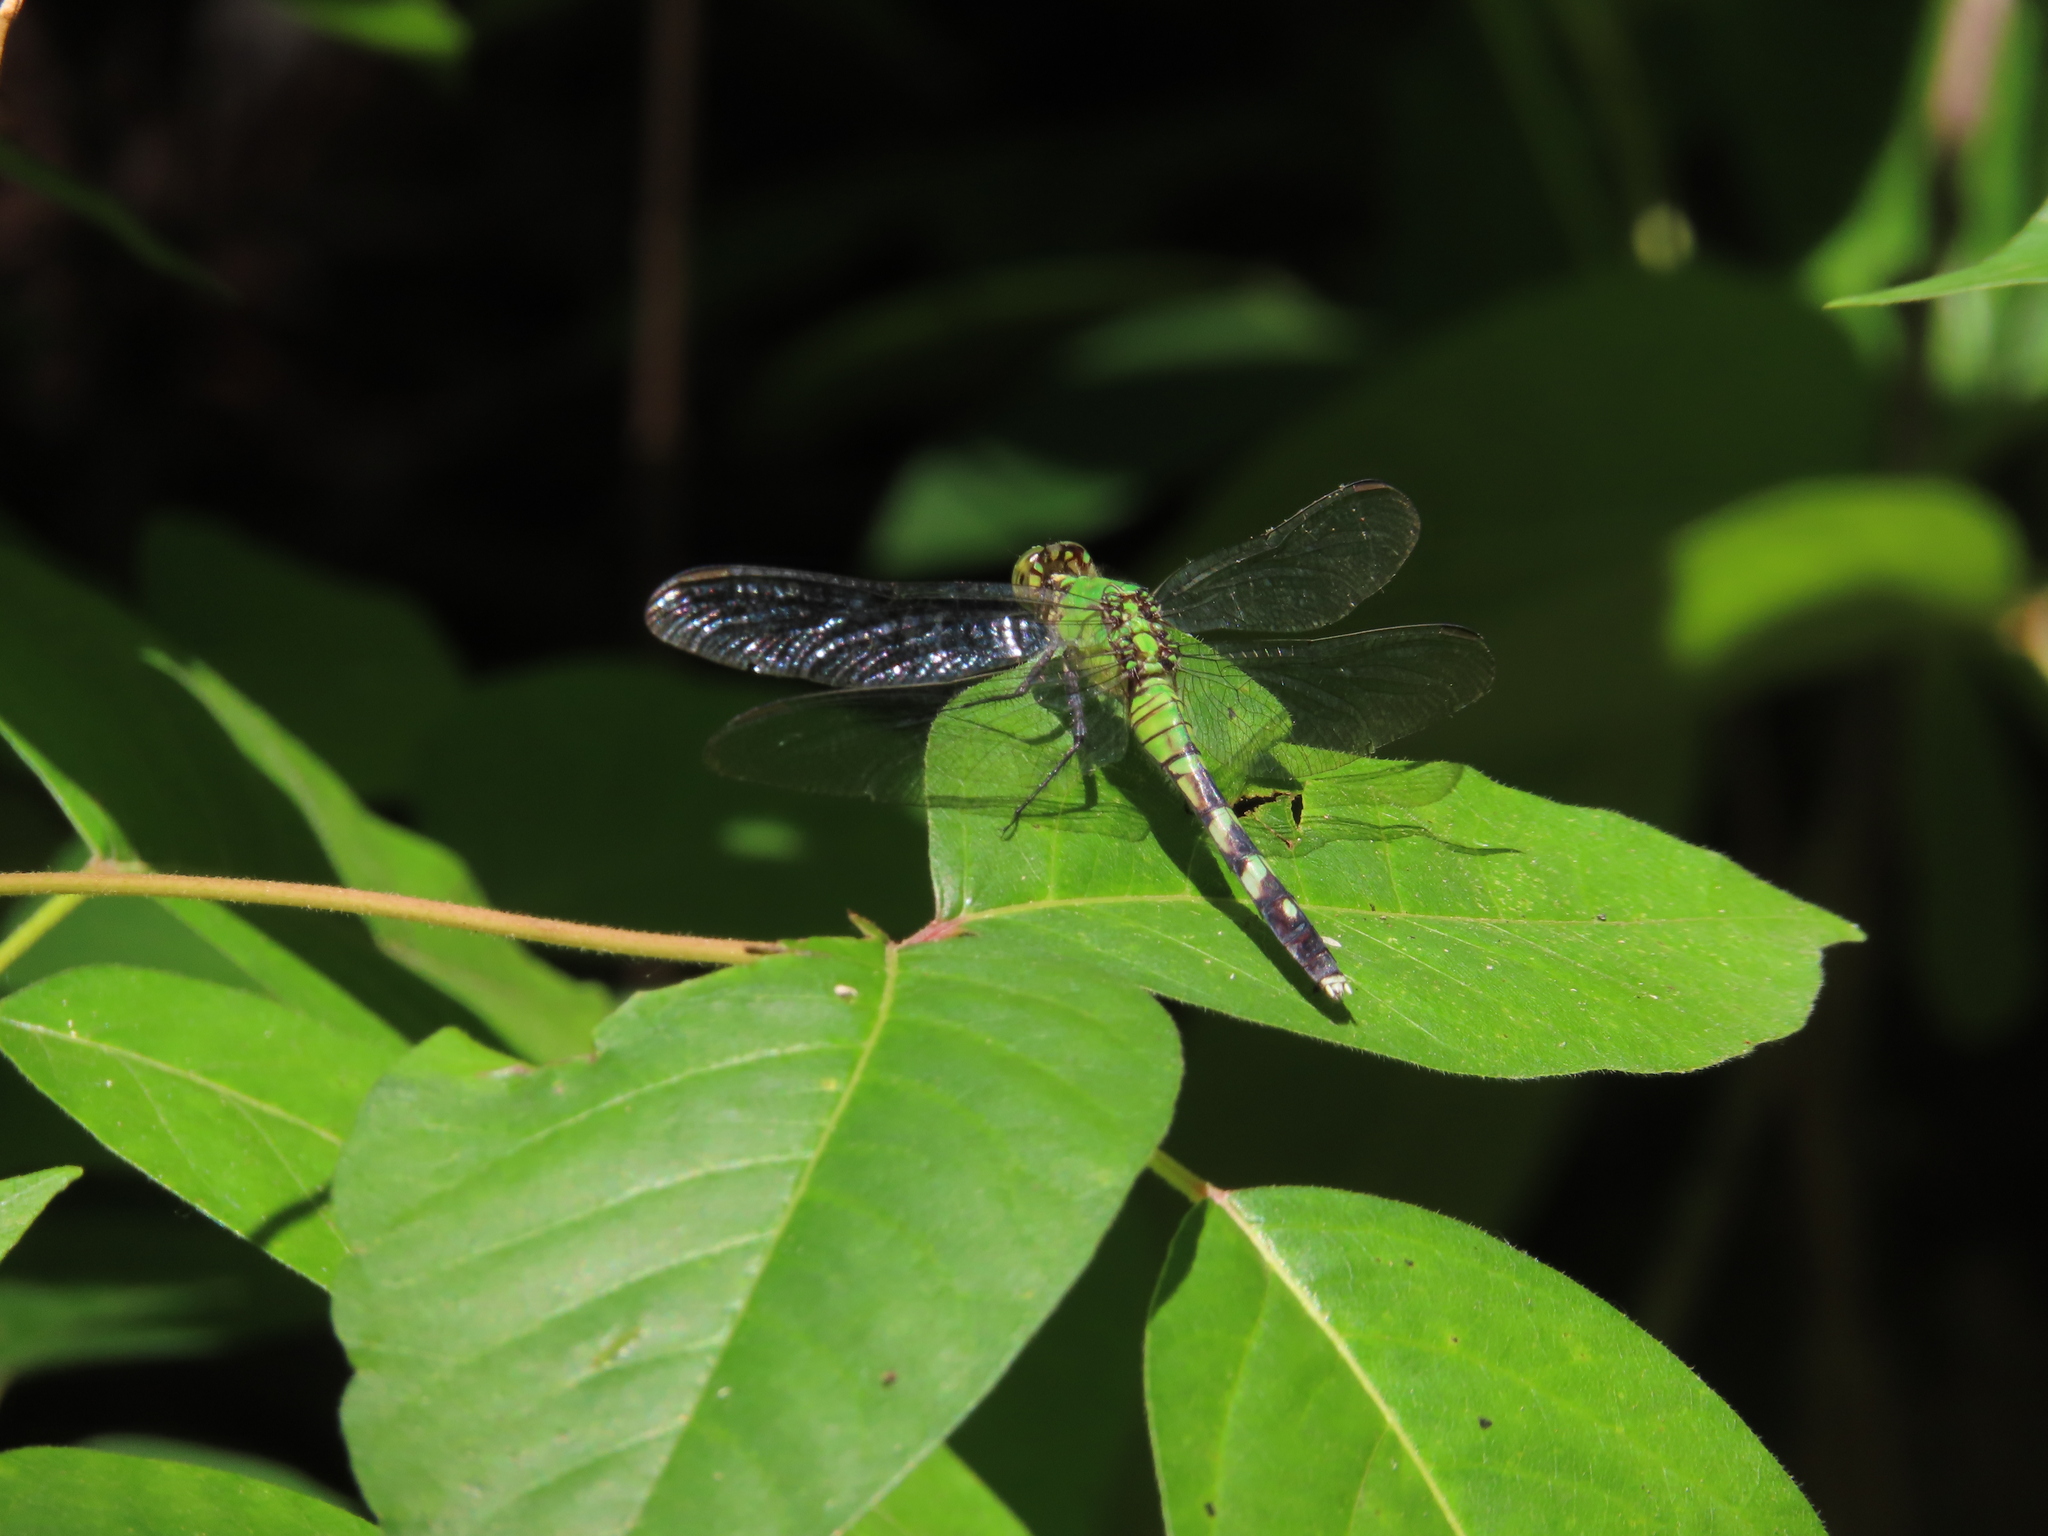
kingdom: Animalia
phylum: Arthropoda
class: Insecta
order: Odonata
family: Libellulidae
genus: Erythemis
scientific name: Erythemis simplicicollis
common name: Eastern pondhawk
